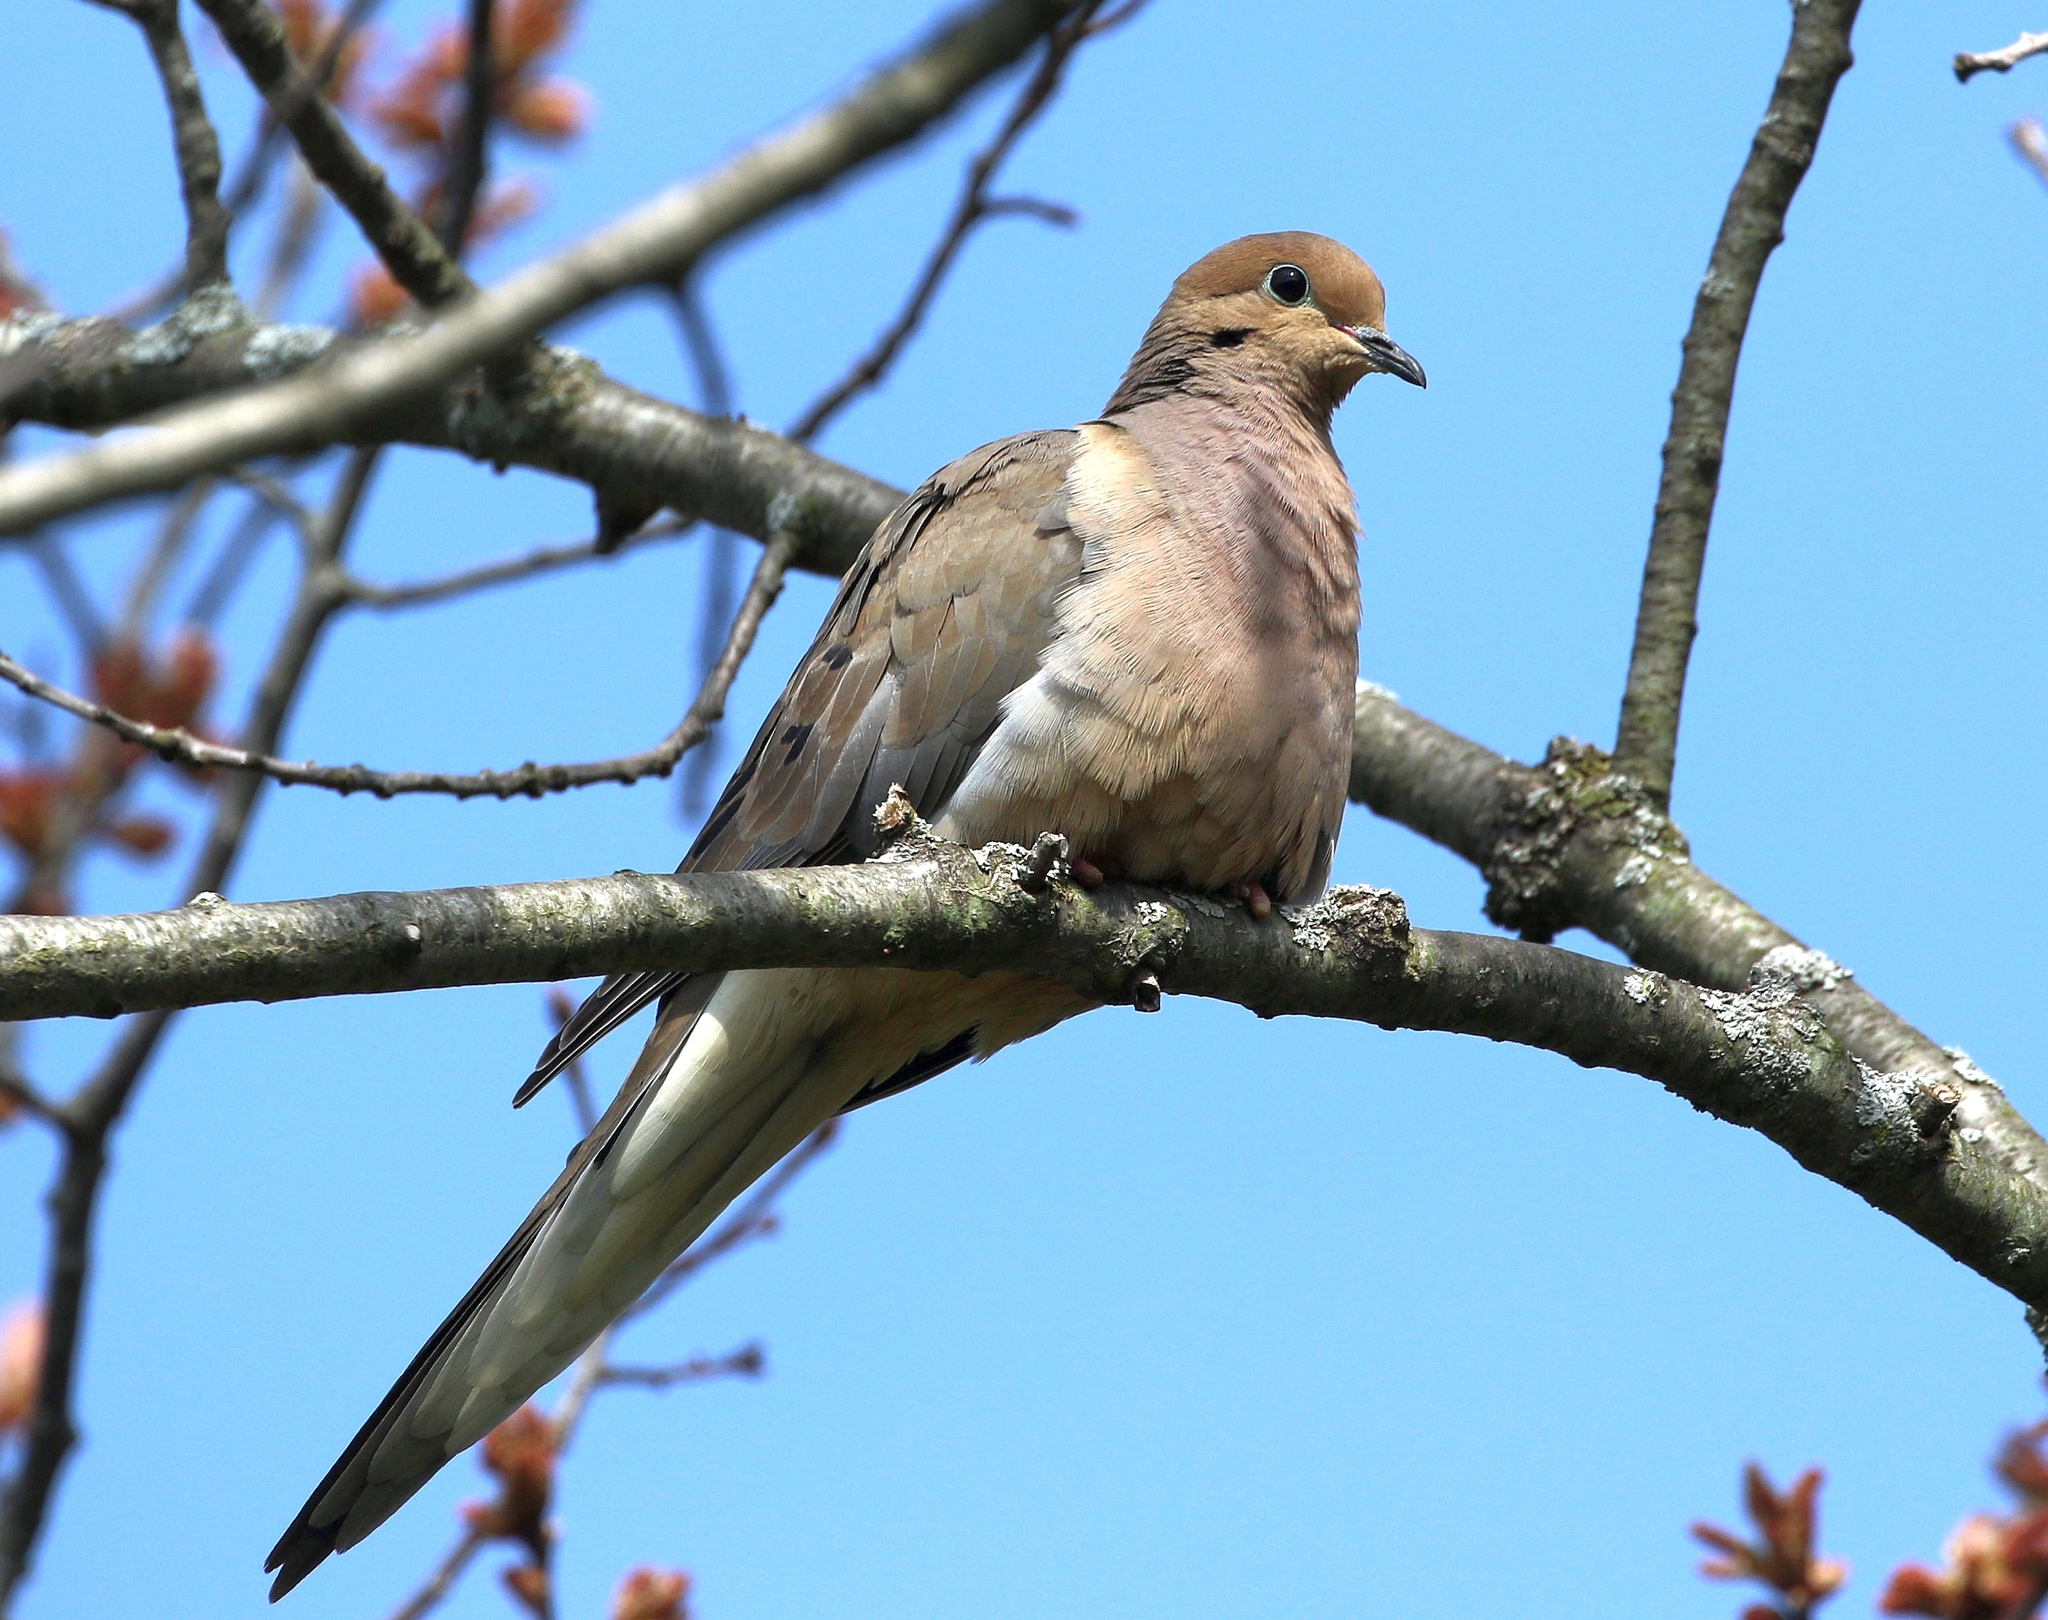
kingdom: Animalia
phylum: Chordata
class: Aves
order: Columbiformes
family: Columbidae
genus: Zenaida
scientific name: Zenaida macroura
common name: Mourning dove
